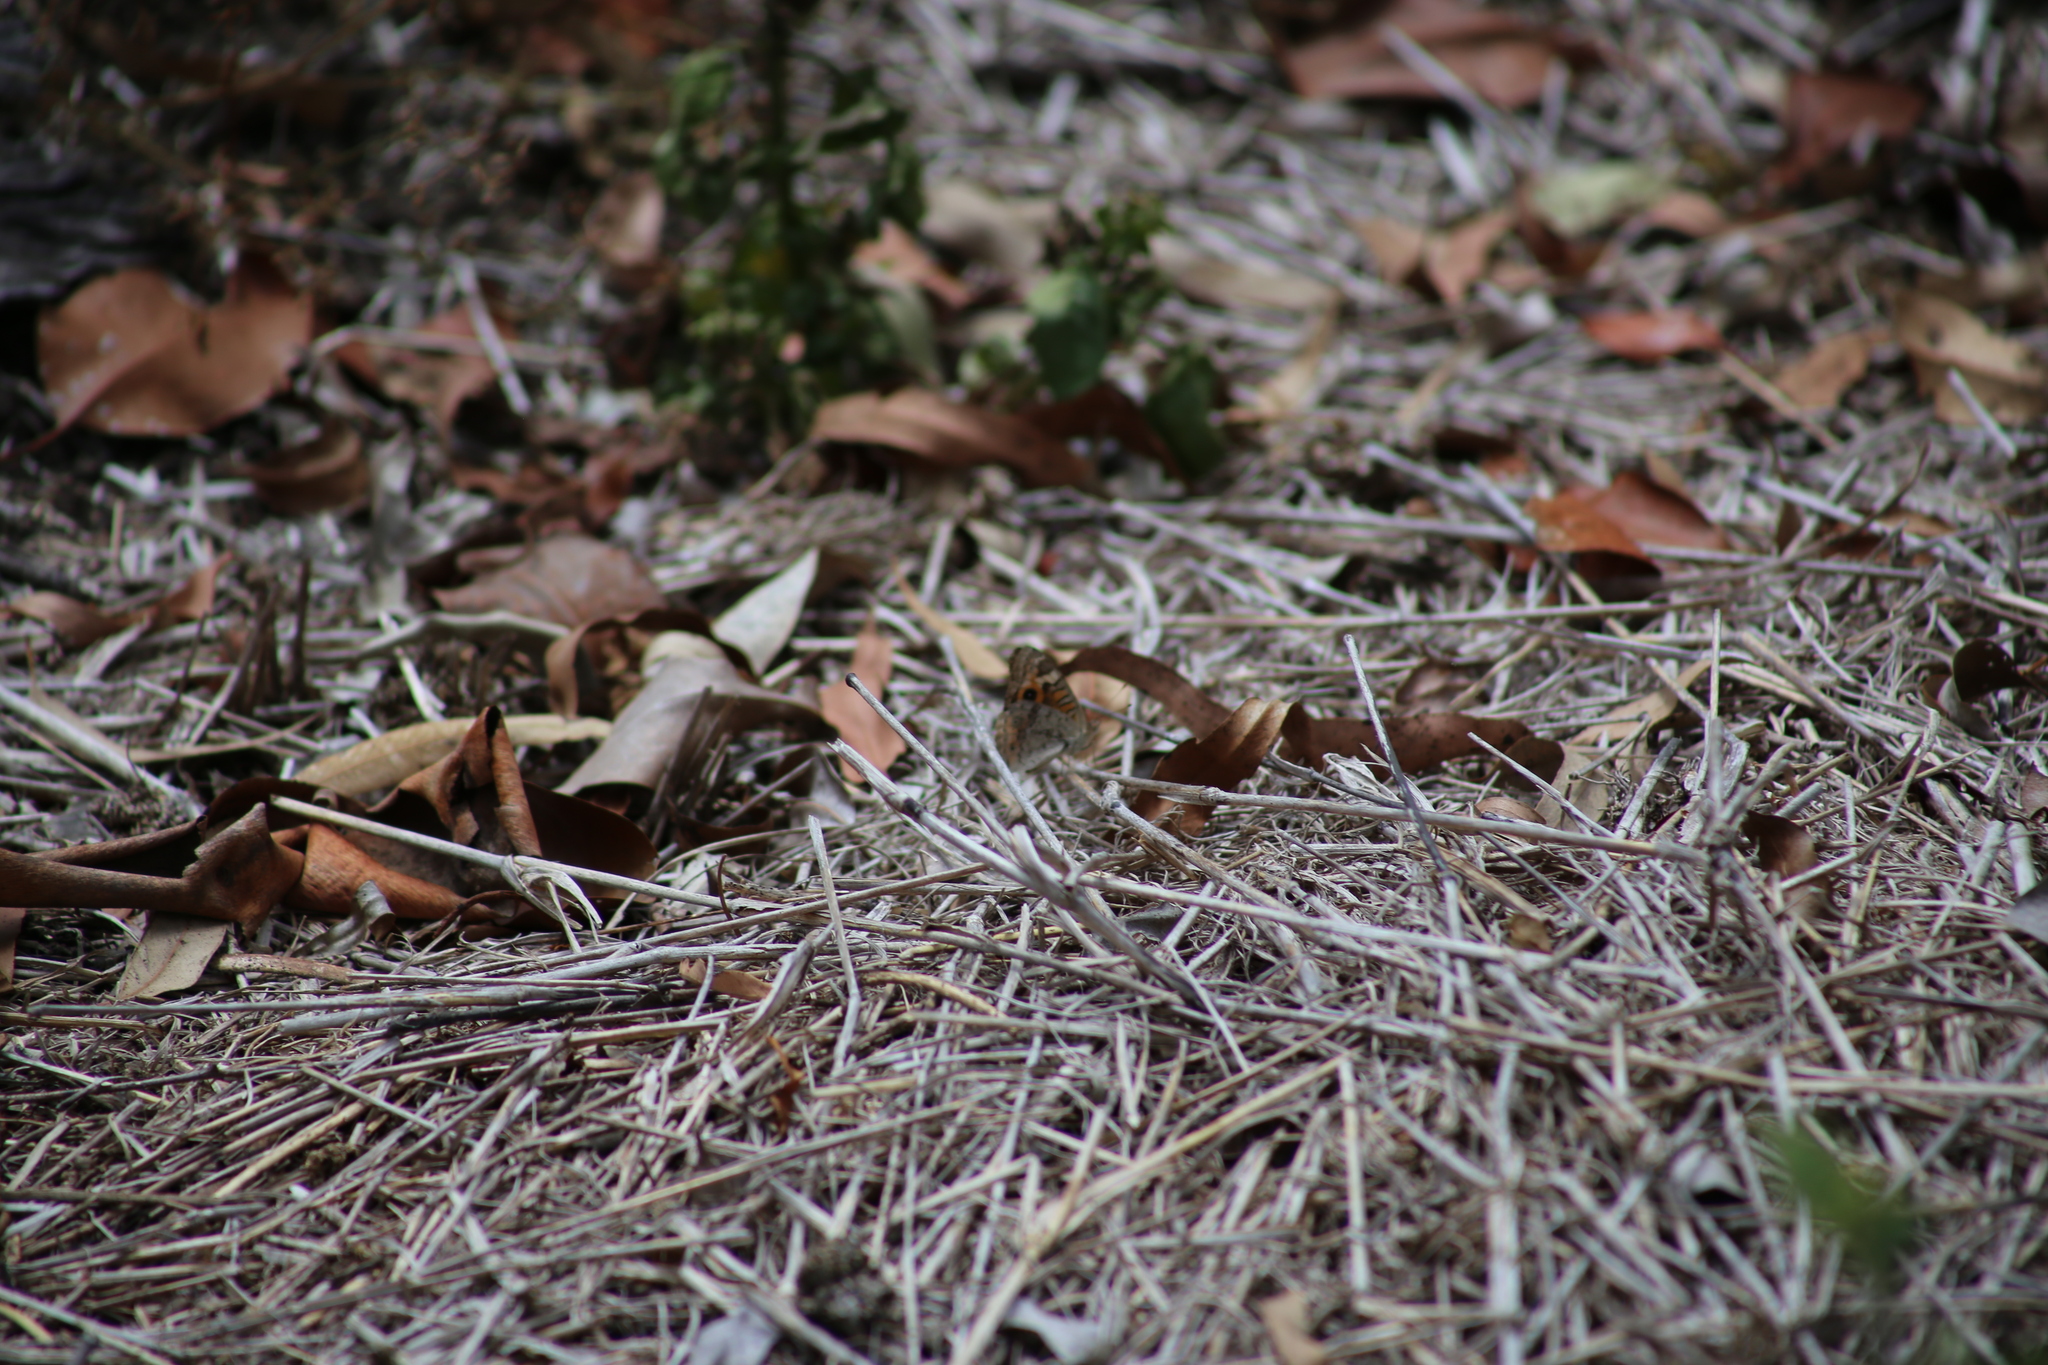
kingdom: Animalia
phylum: Arthropoda
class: Insecta
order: Lepidoptera
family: Nymphalidae
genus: Junonia
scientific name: Junonia villida
